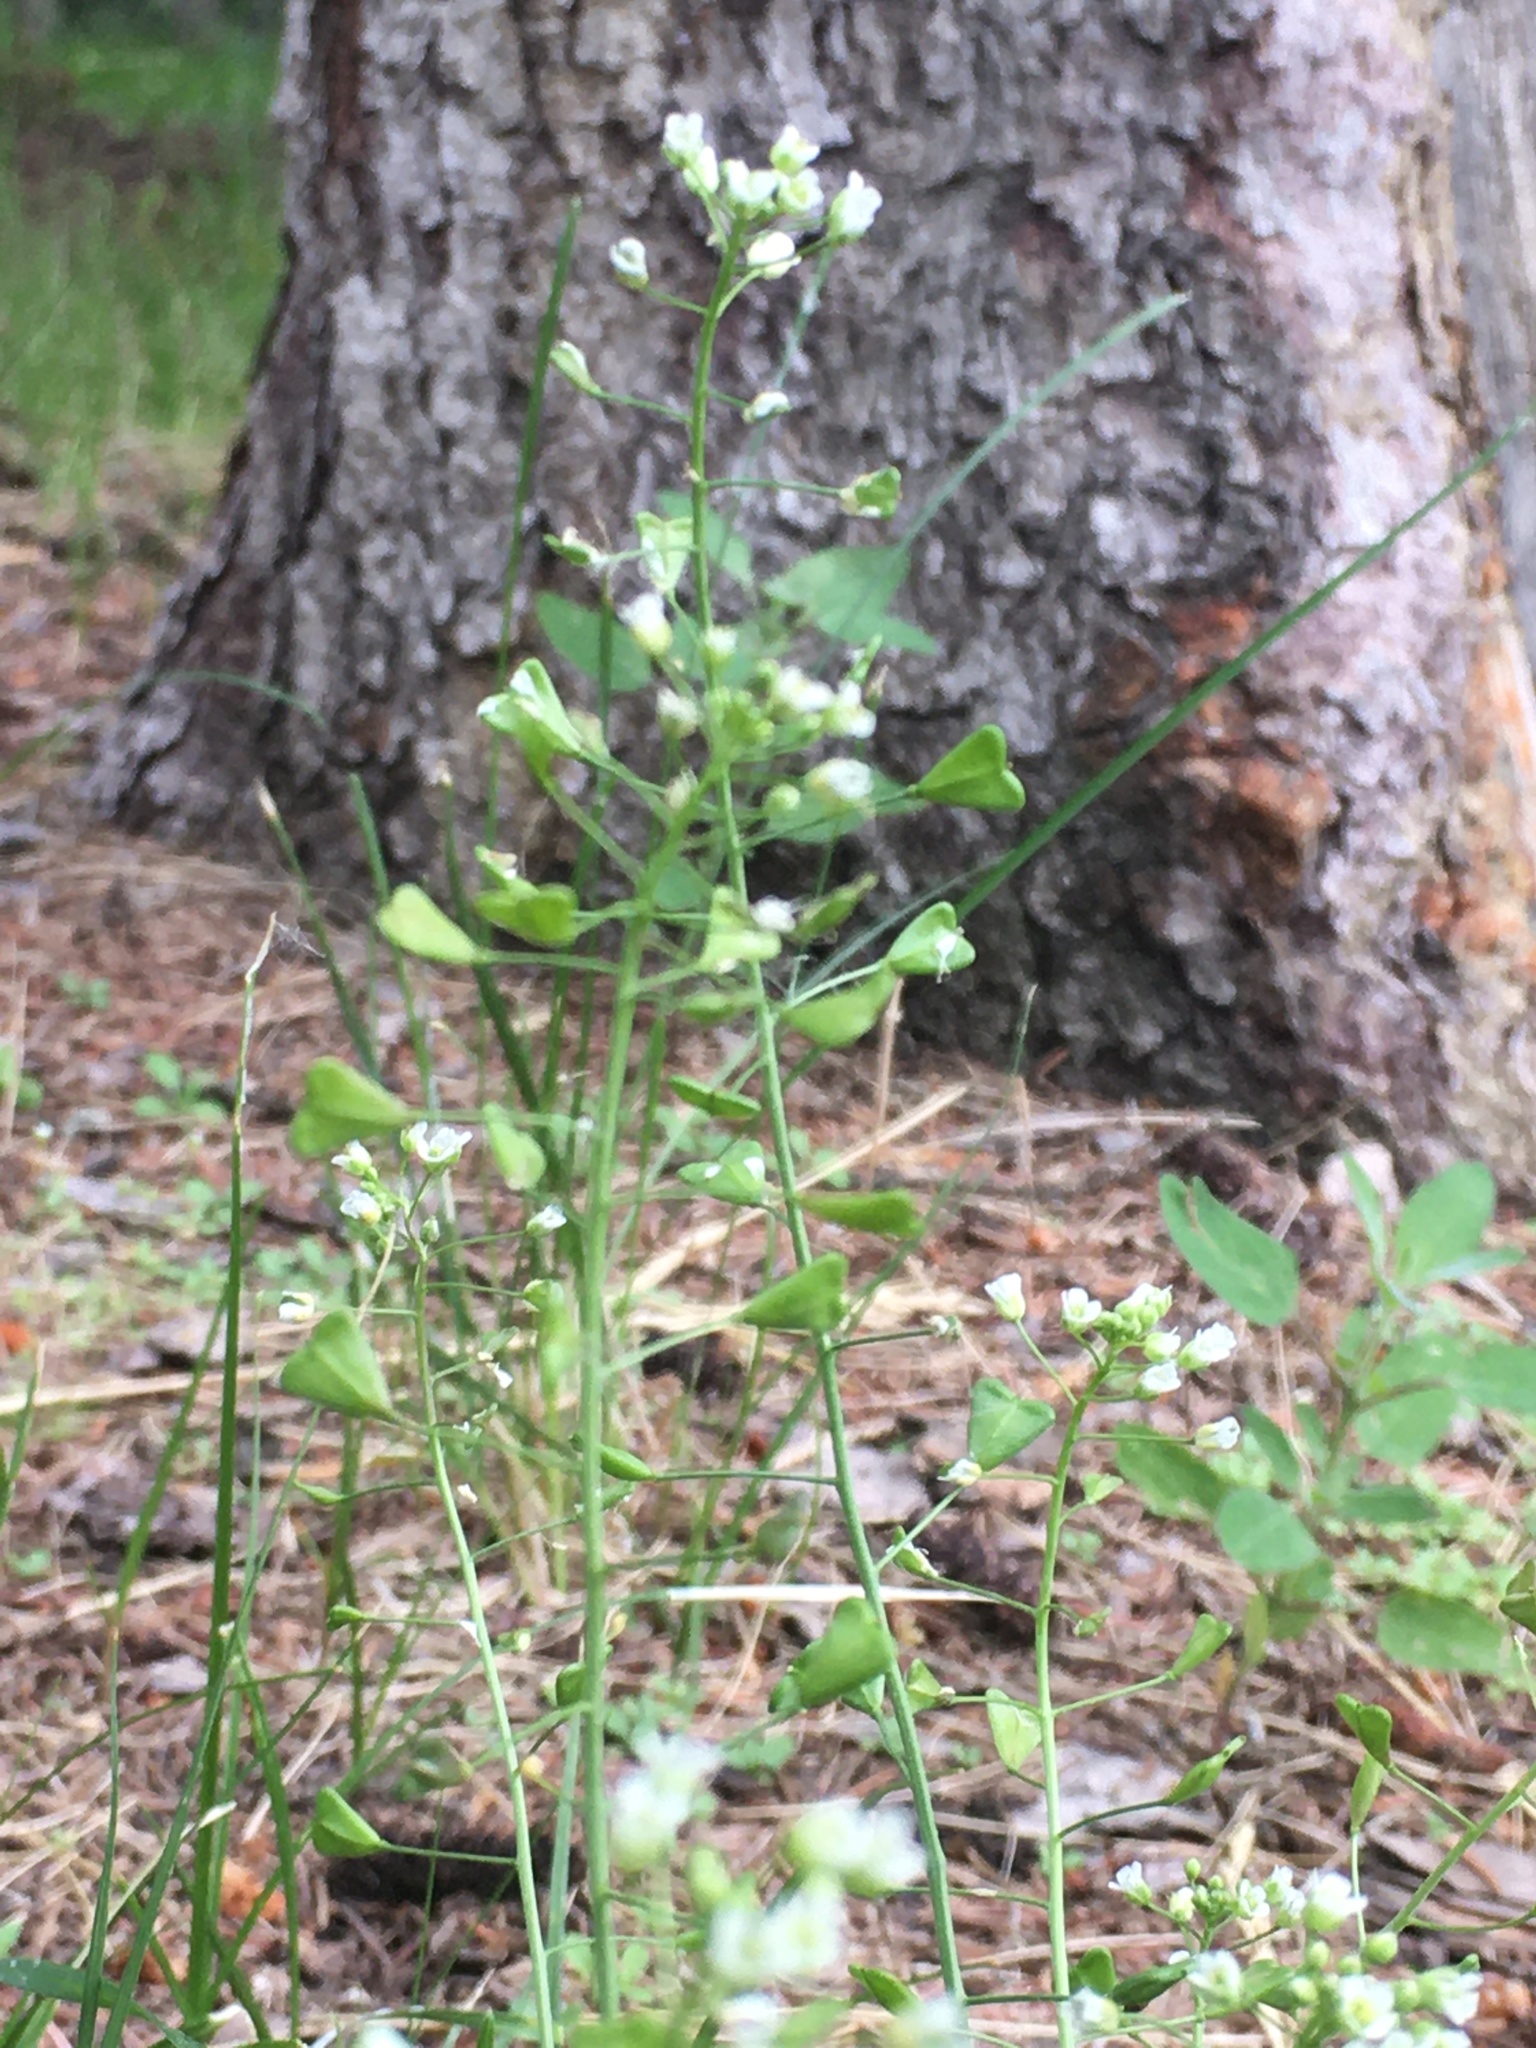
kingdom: Plantae
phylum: Tracheophyta
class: Magnoliopsida
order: Brassicales
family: Brassicaceae
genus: Capsella
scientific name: Capsella bursa-pastoris
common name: Shepherd's purse
